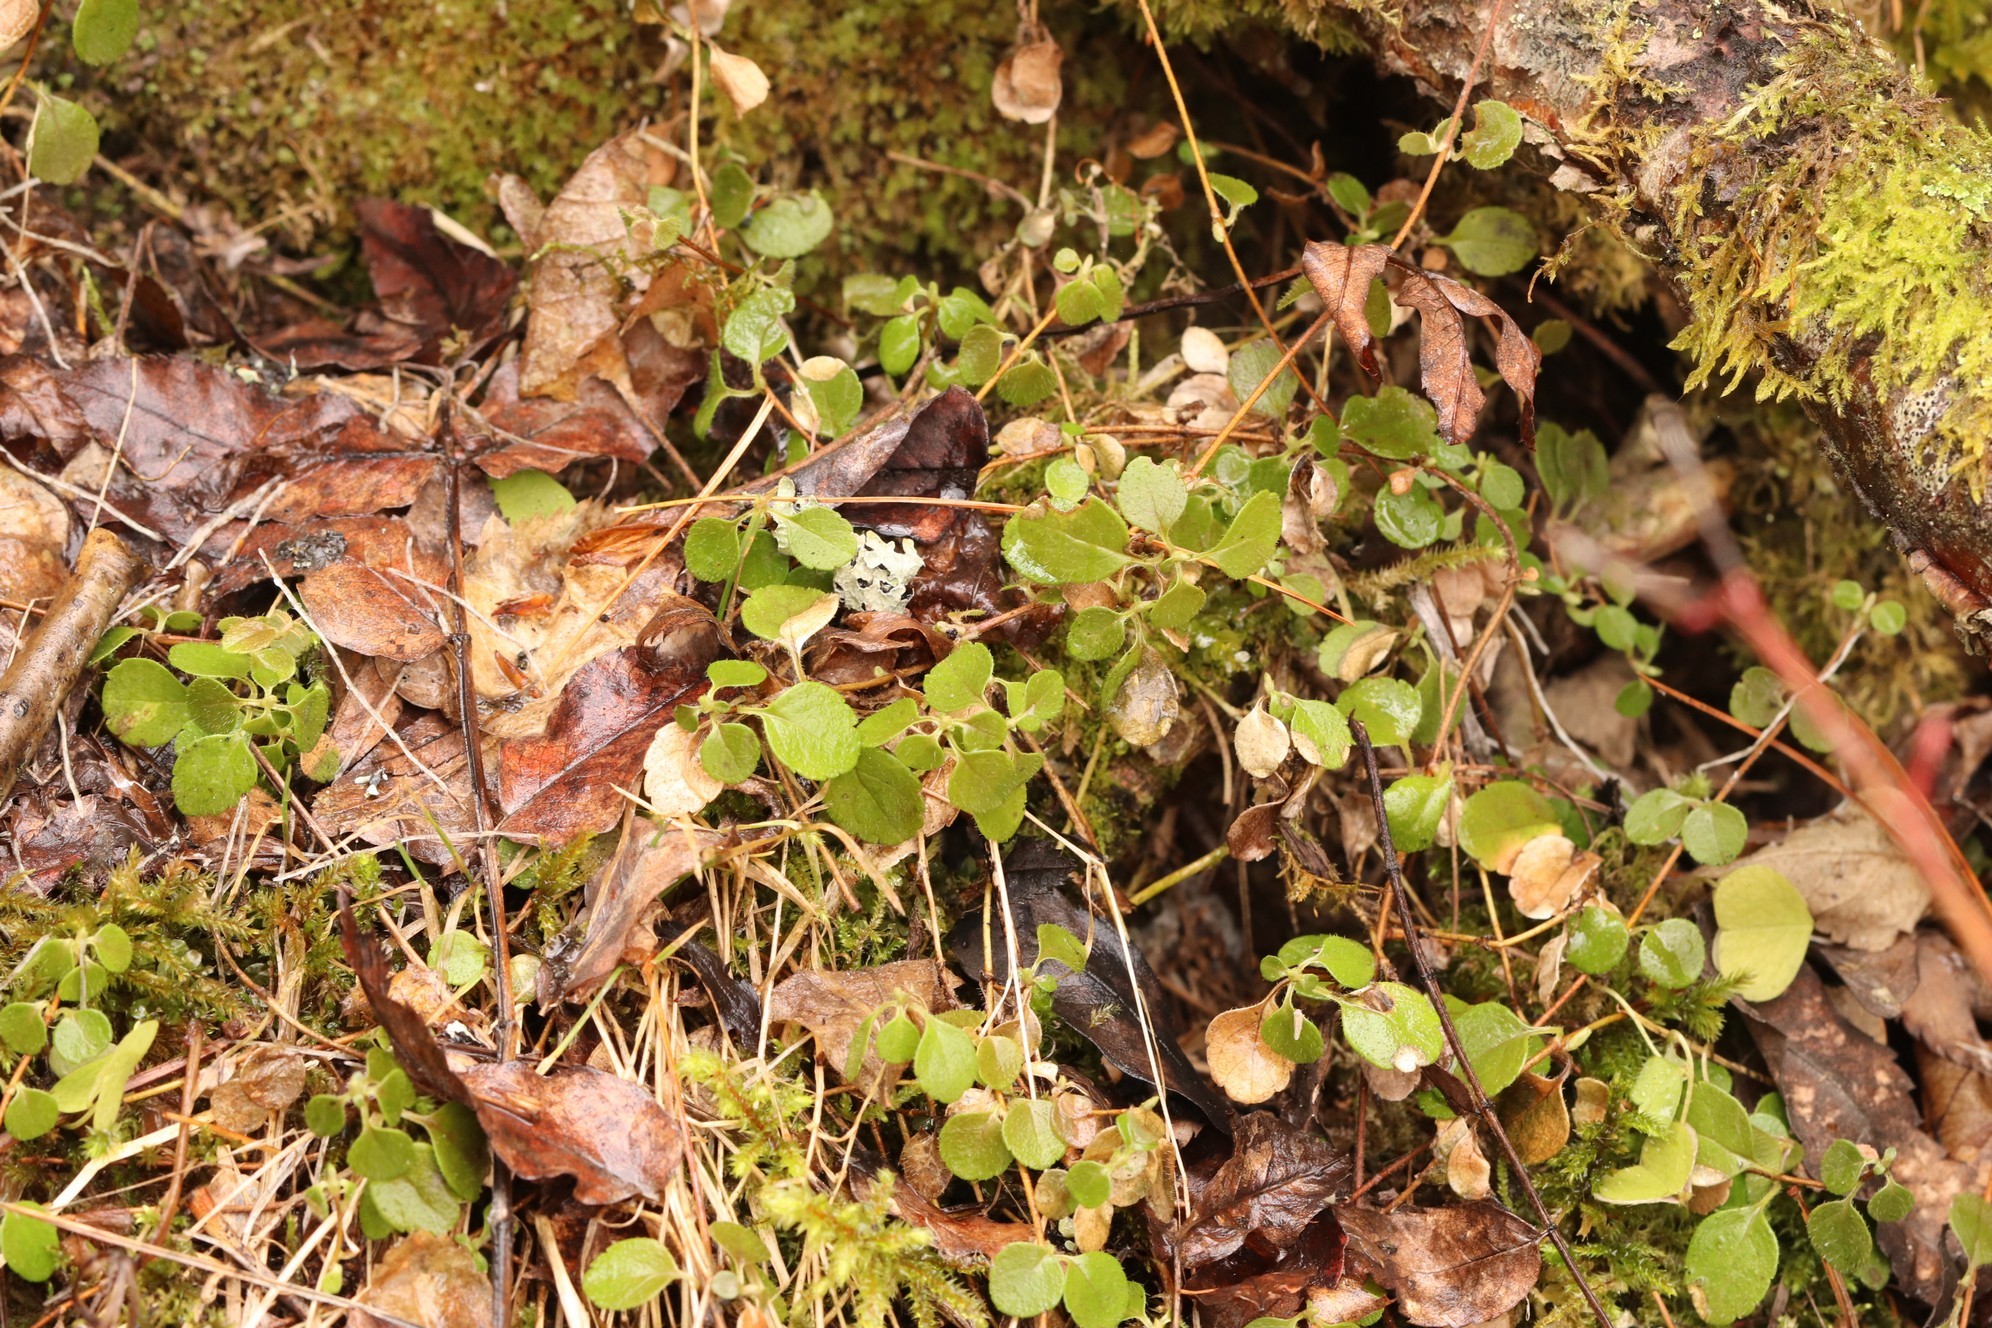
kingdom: Plantae
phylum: Tracheophyta
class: Magnoliopsida
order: Dipsacales
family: Caprifoliaceae
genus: Linnaea
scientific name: Linnaea borealis
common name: Twinflower
